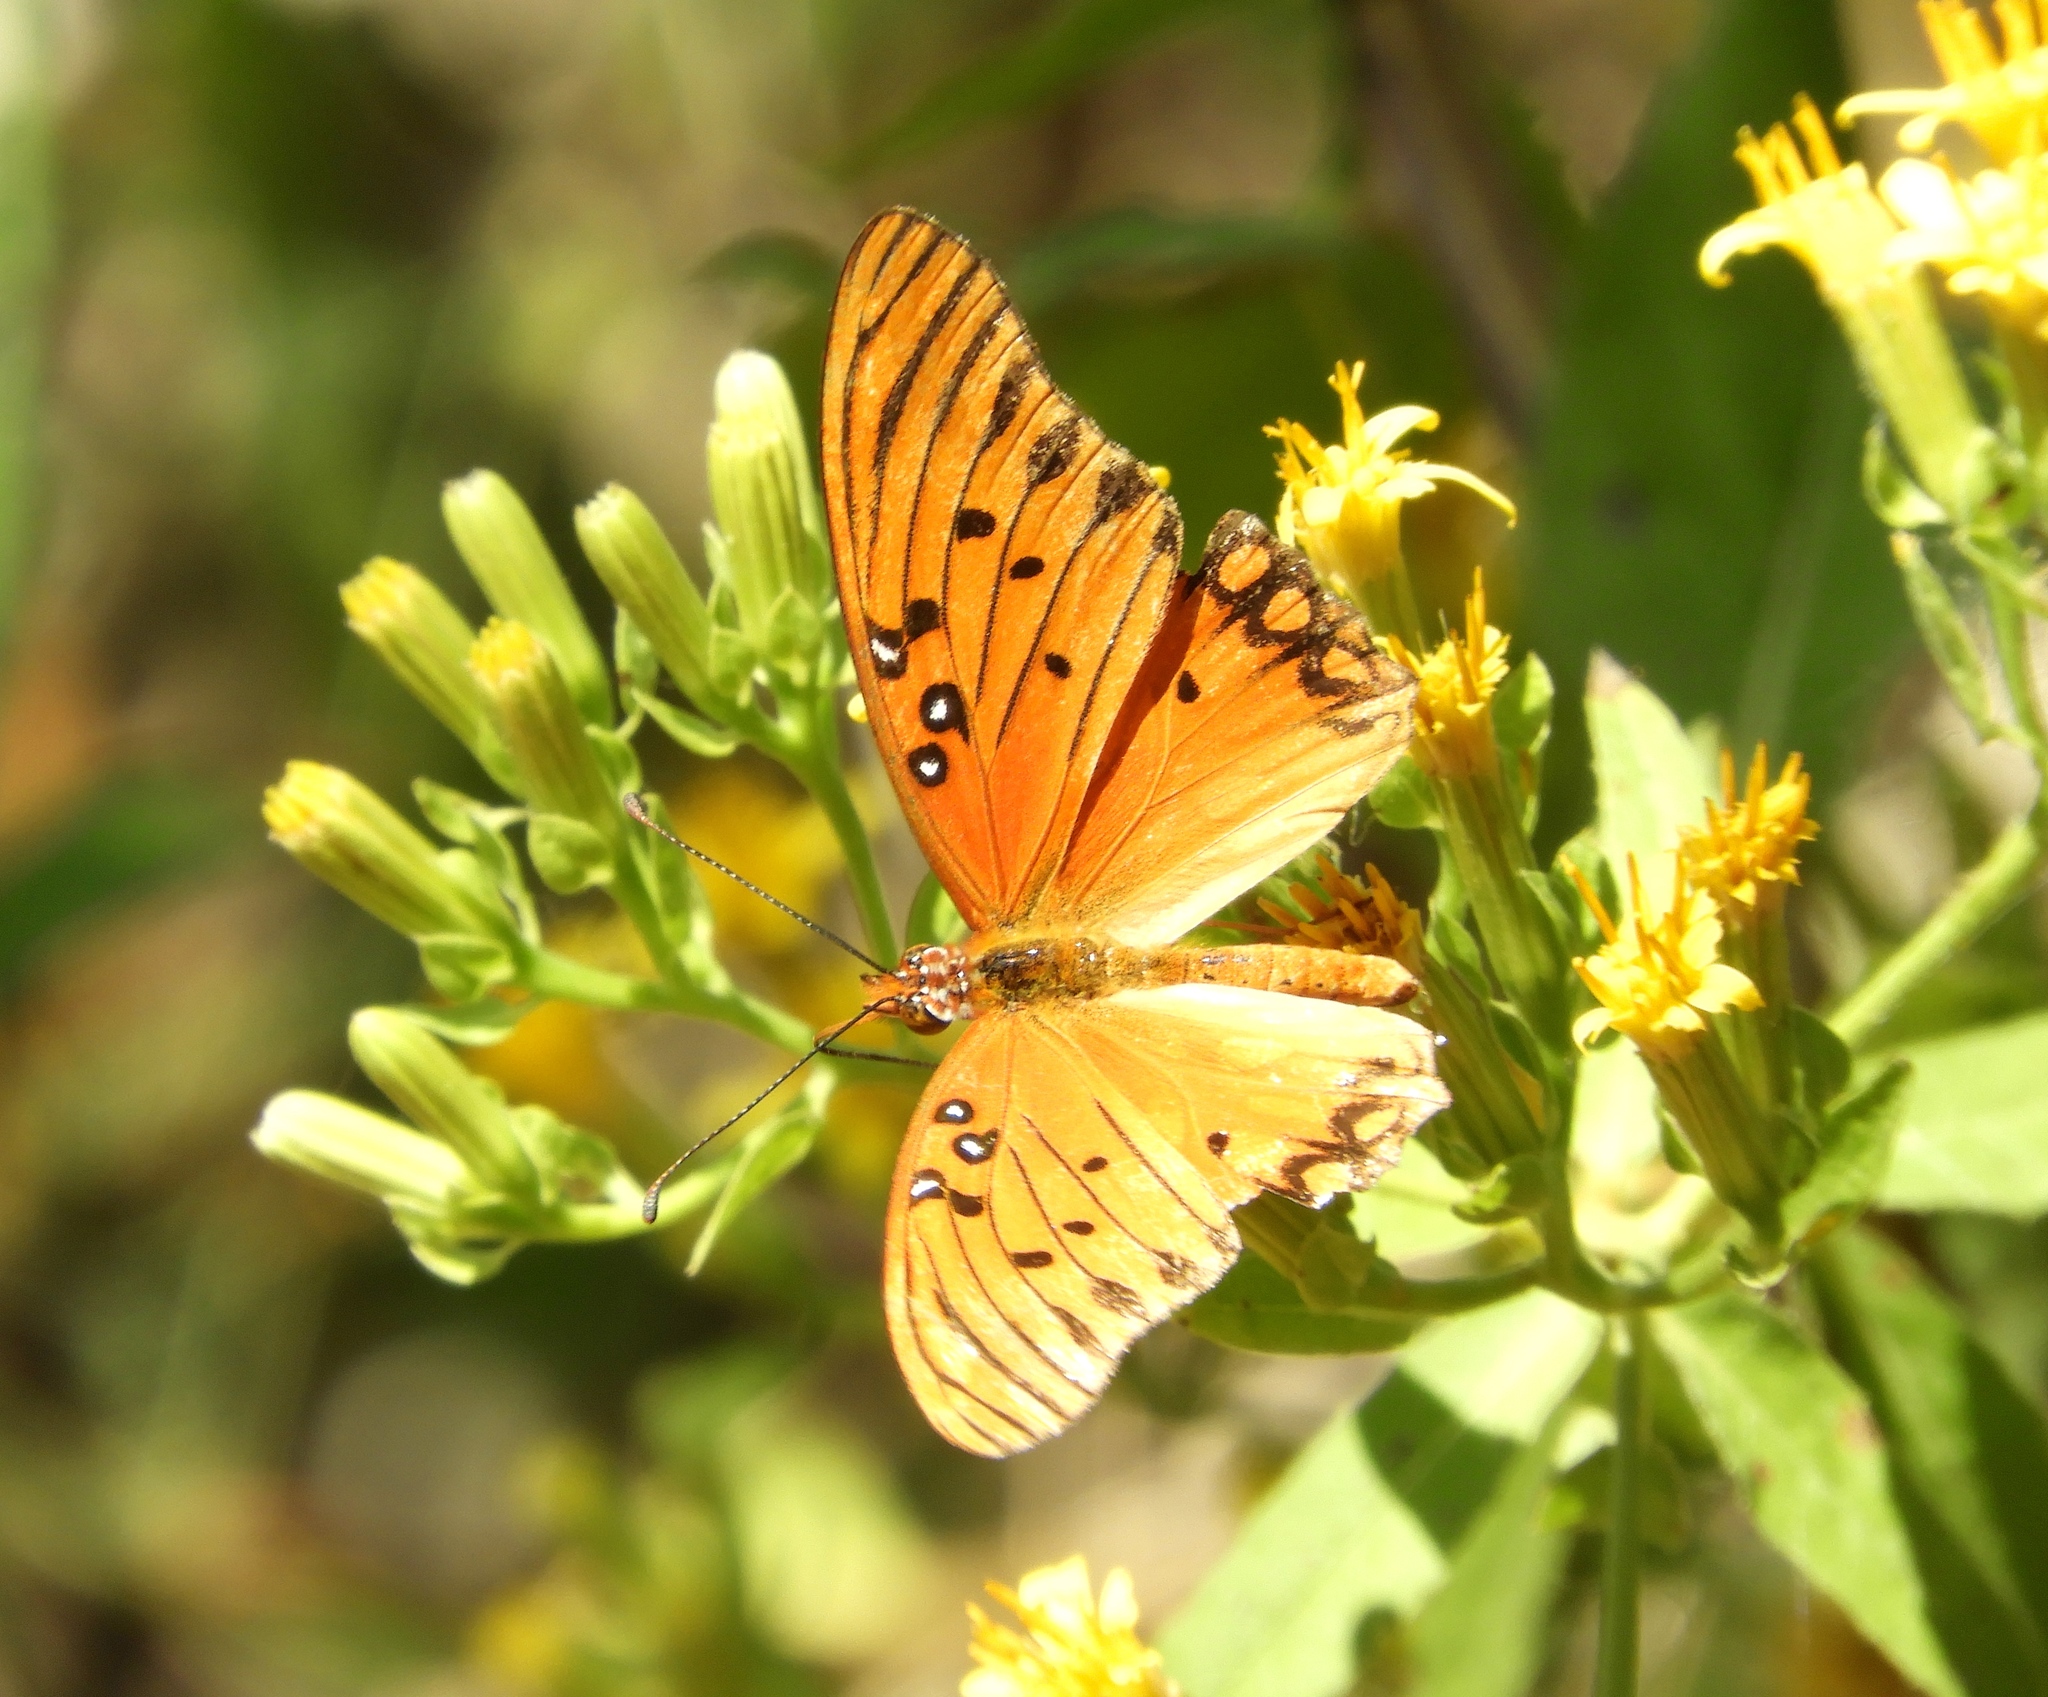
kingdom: Animalia
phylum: Arthropoda
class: Insecta
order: Lepidoptera
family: Nymphalidae
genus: Dione
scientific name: Dione vanillae
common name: Gulf fritillary
